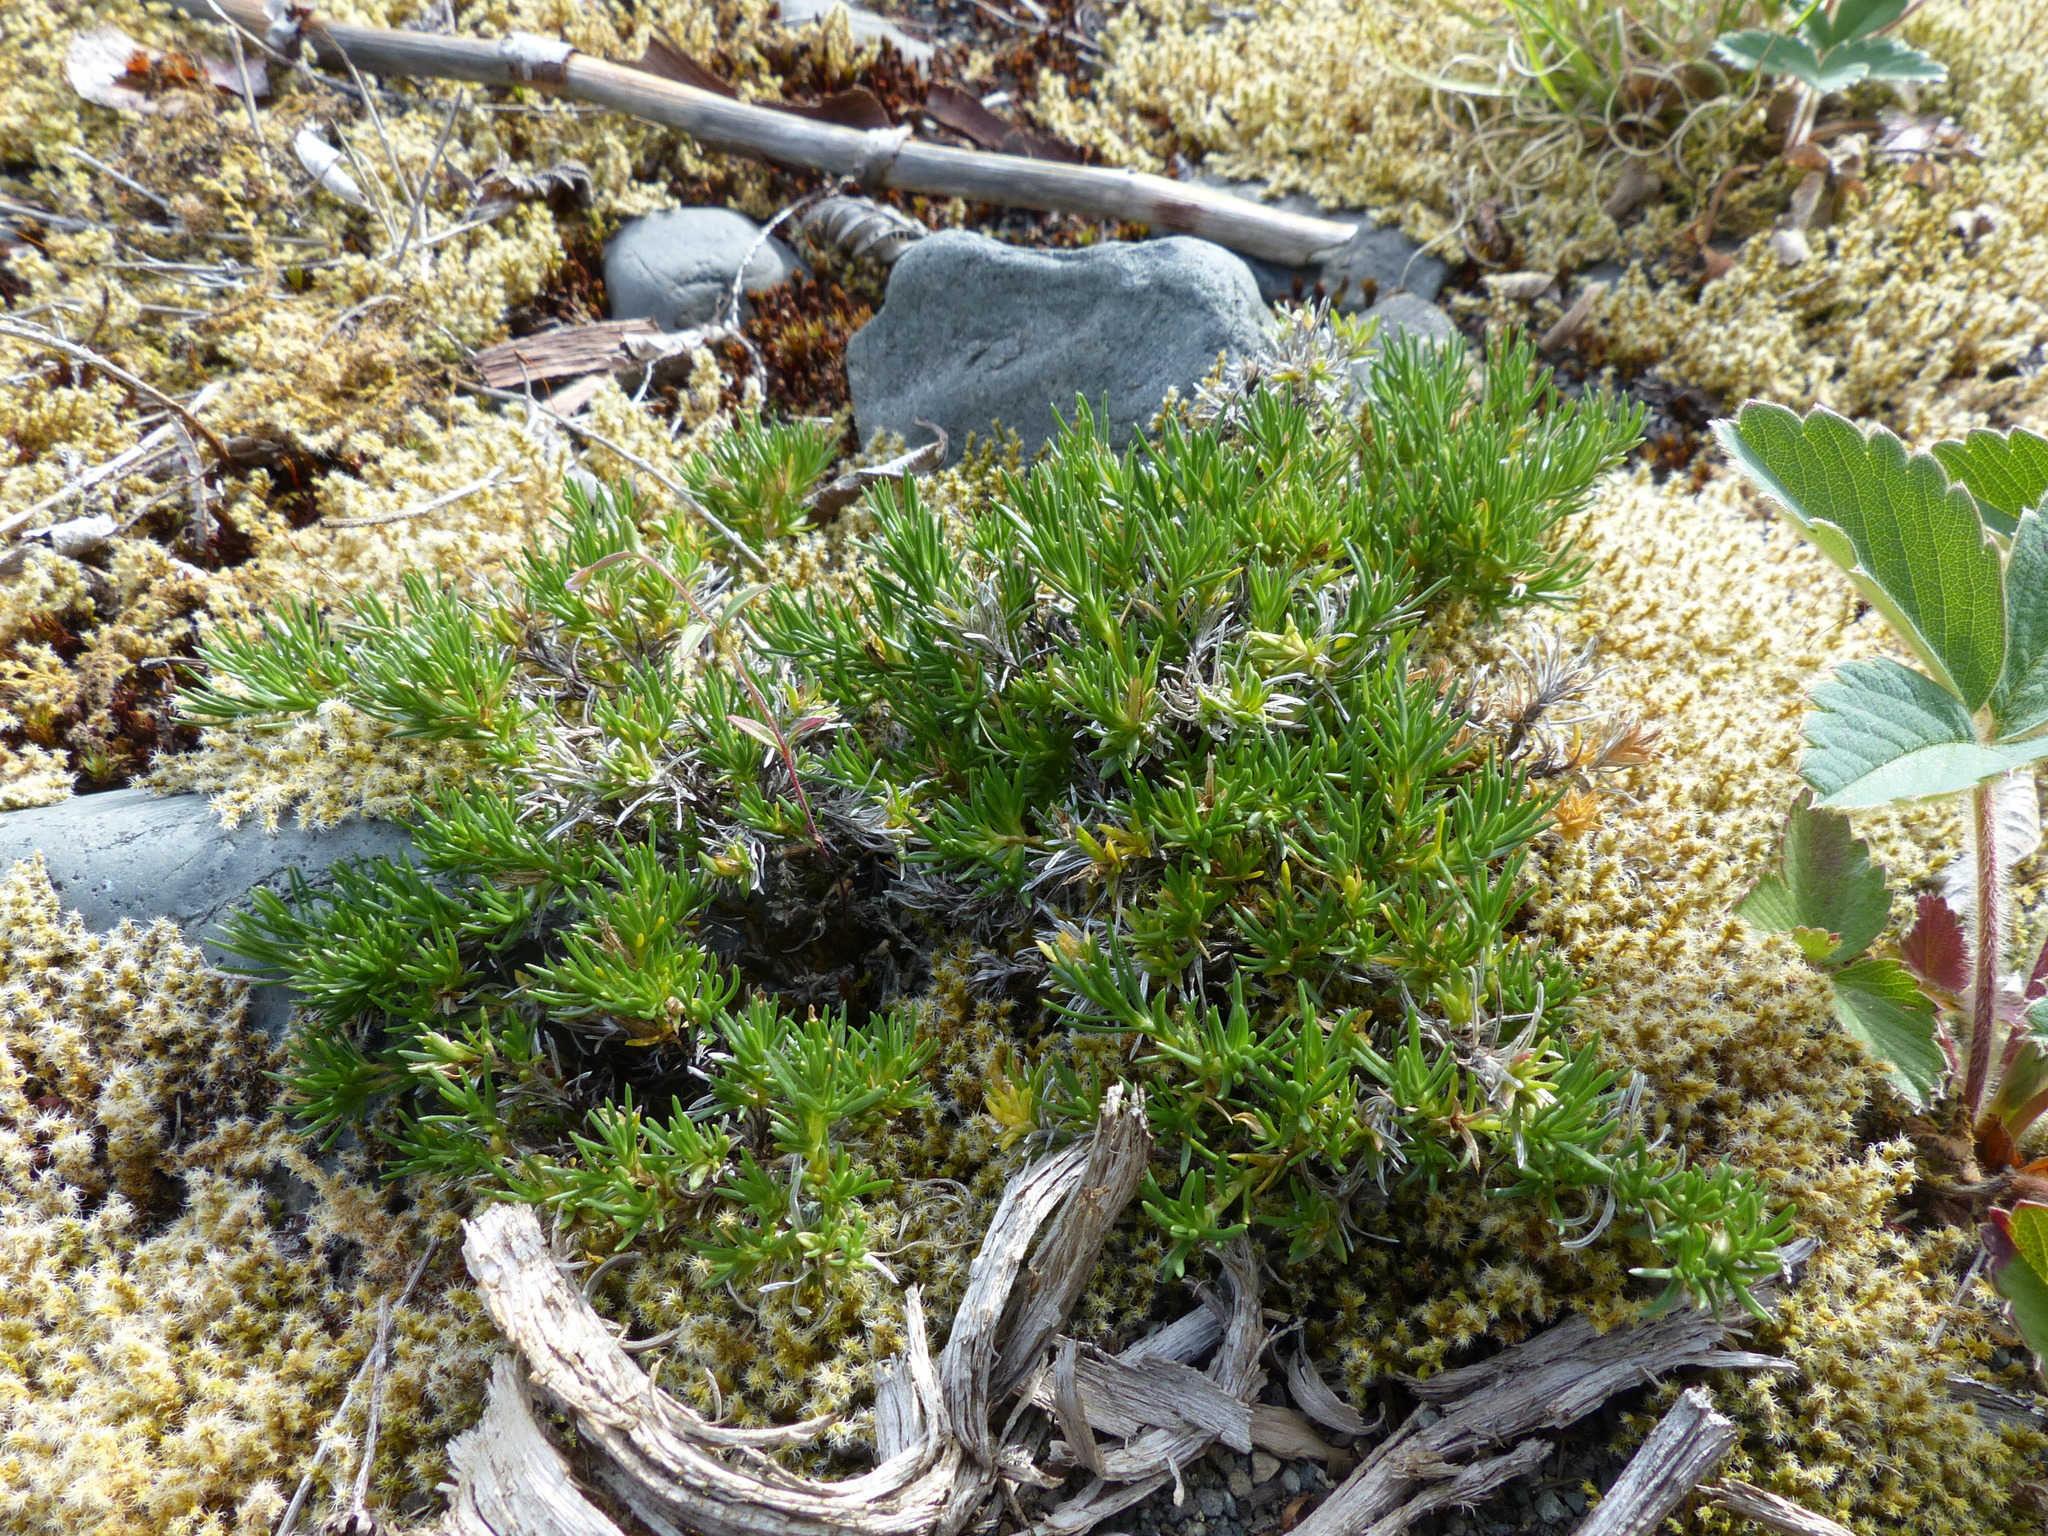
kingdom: Plantae
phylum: Tracheophyta
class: Magnoliopsida
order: Ericales
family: Polemoniaceae
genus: Phlox
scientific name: Phlox diffusa
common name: Mat phlox
